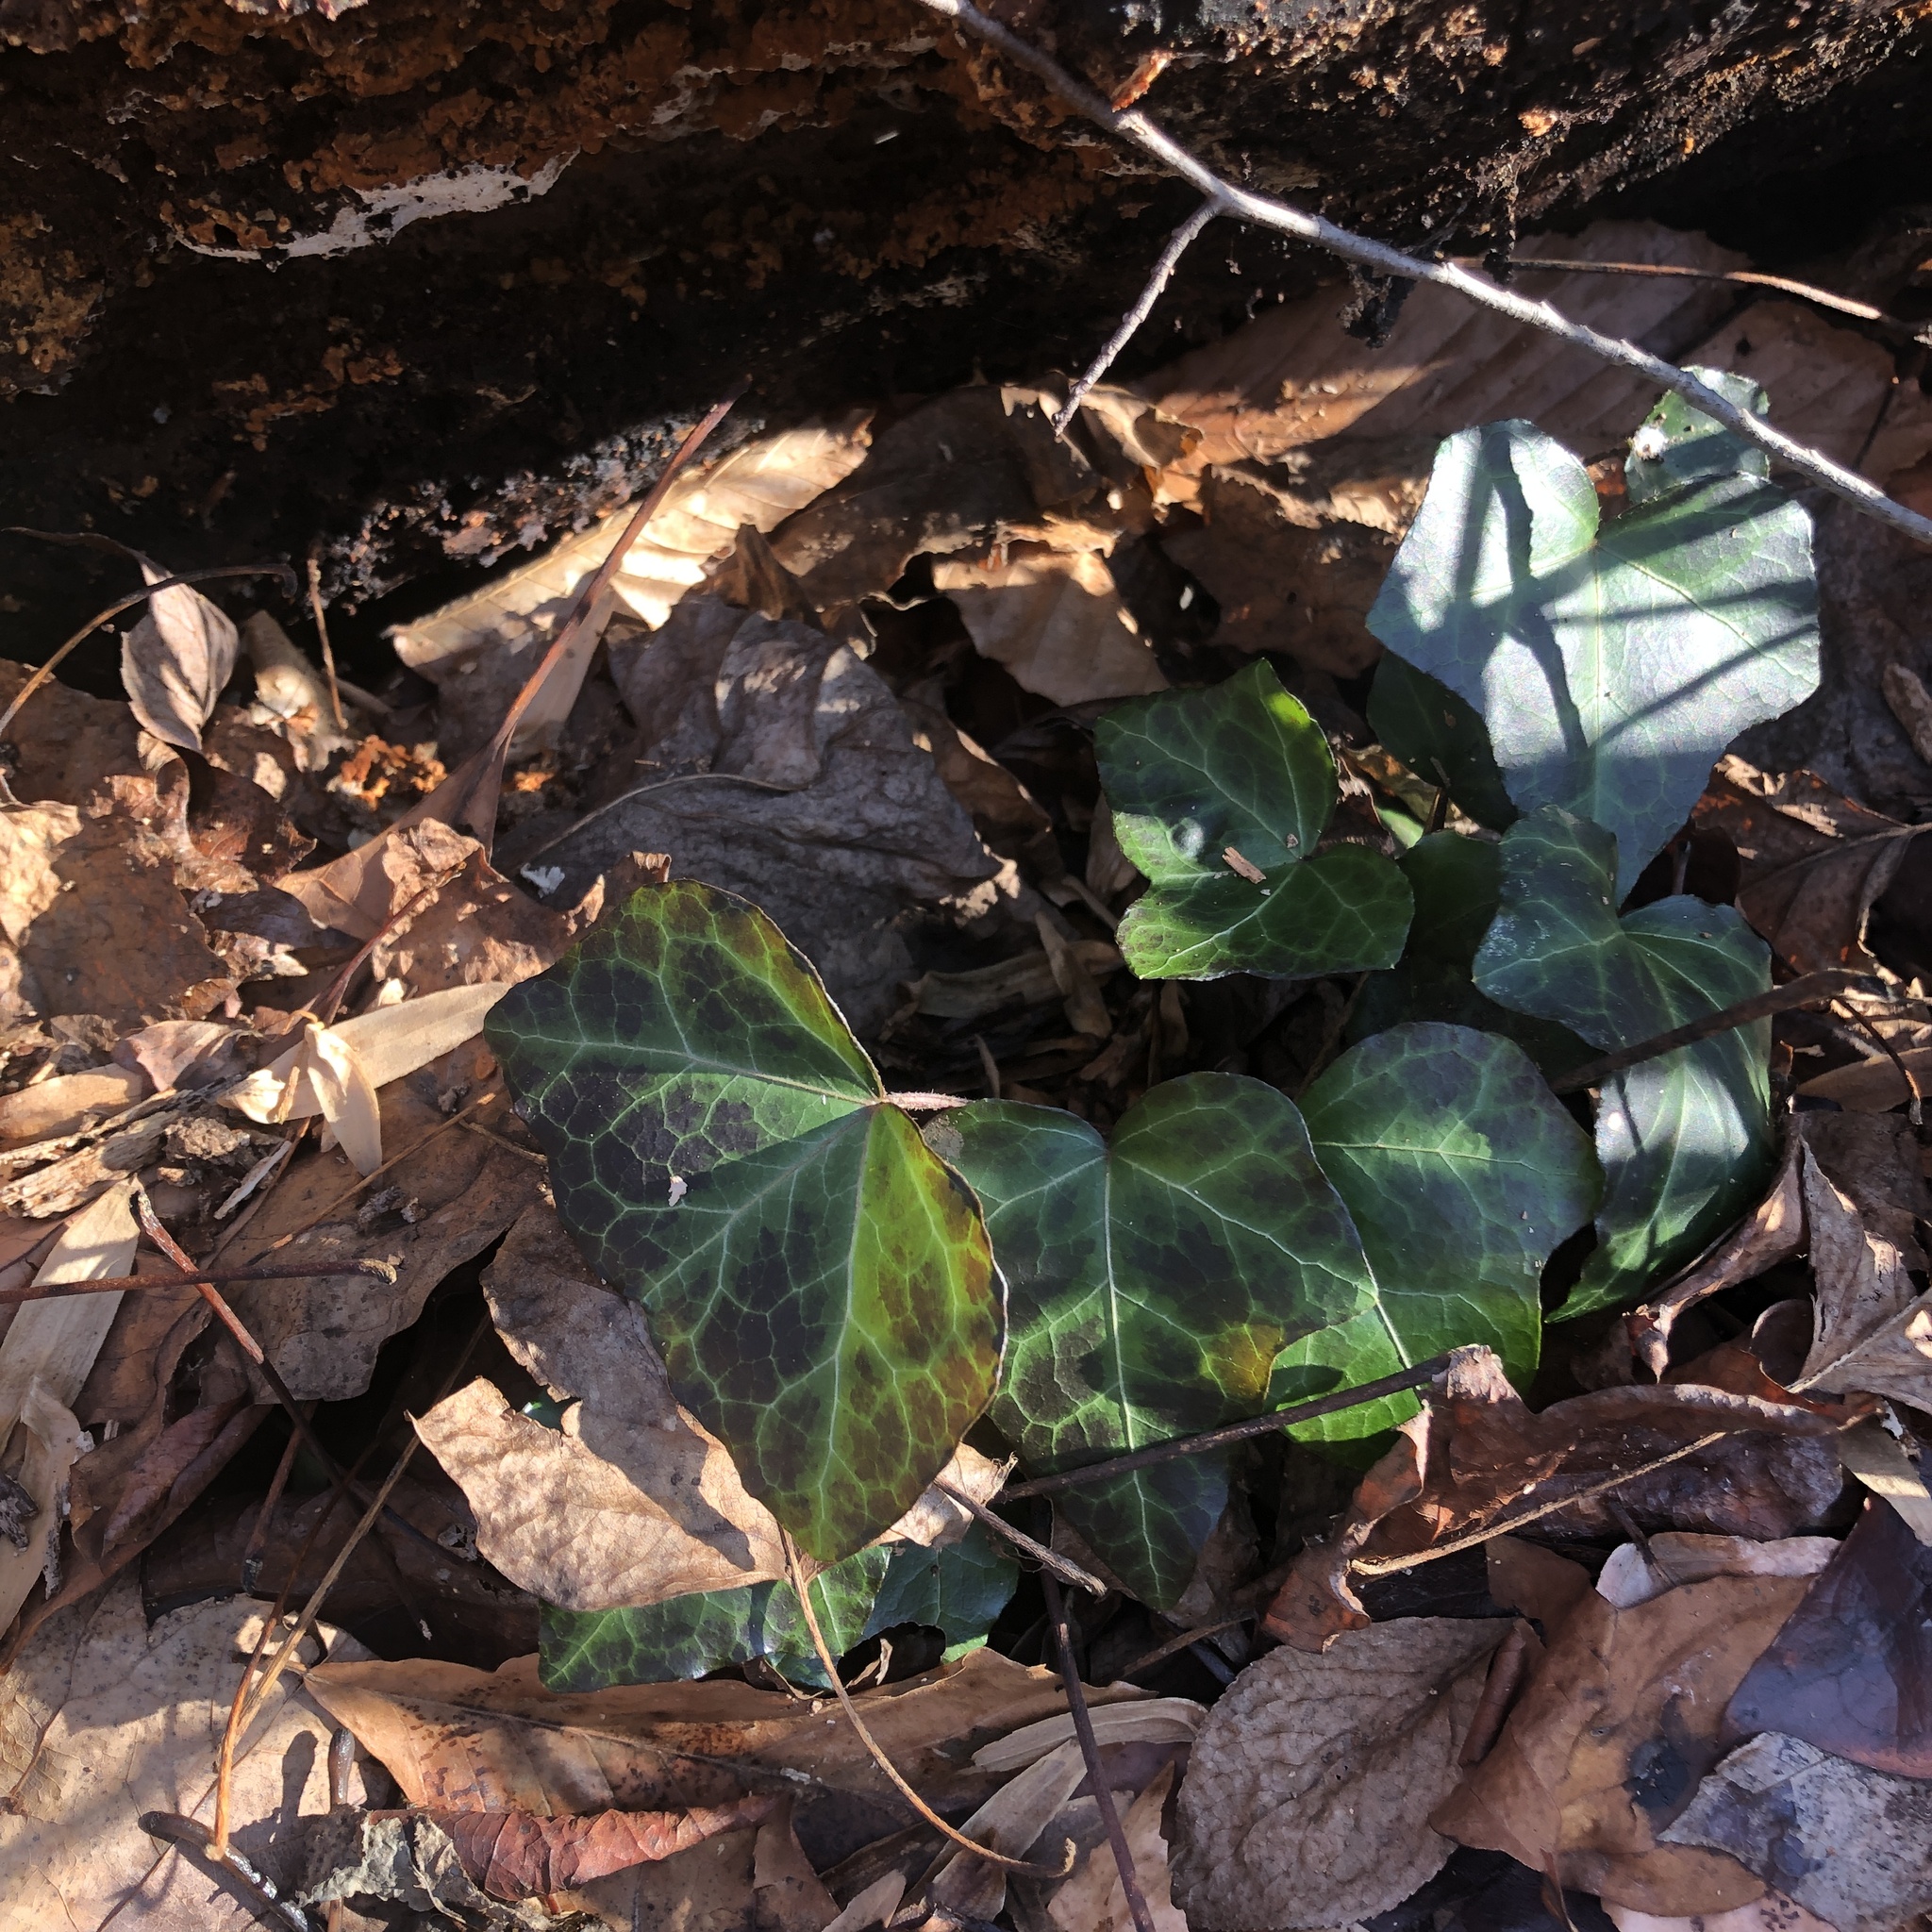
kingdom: Plantae
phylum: Tracheophyta
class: Magnoliopsida
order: Apiales
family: Araliaceae
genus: Hedera
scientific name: Hedera helix
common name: Ivy
